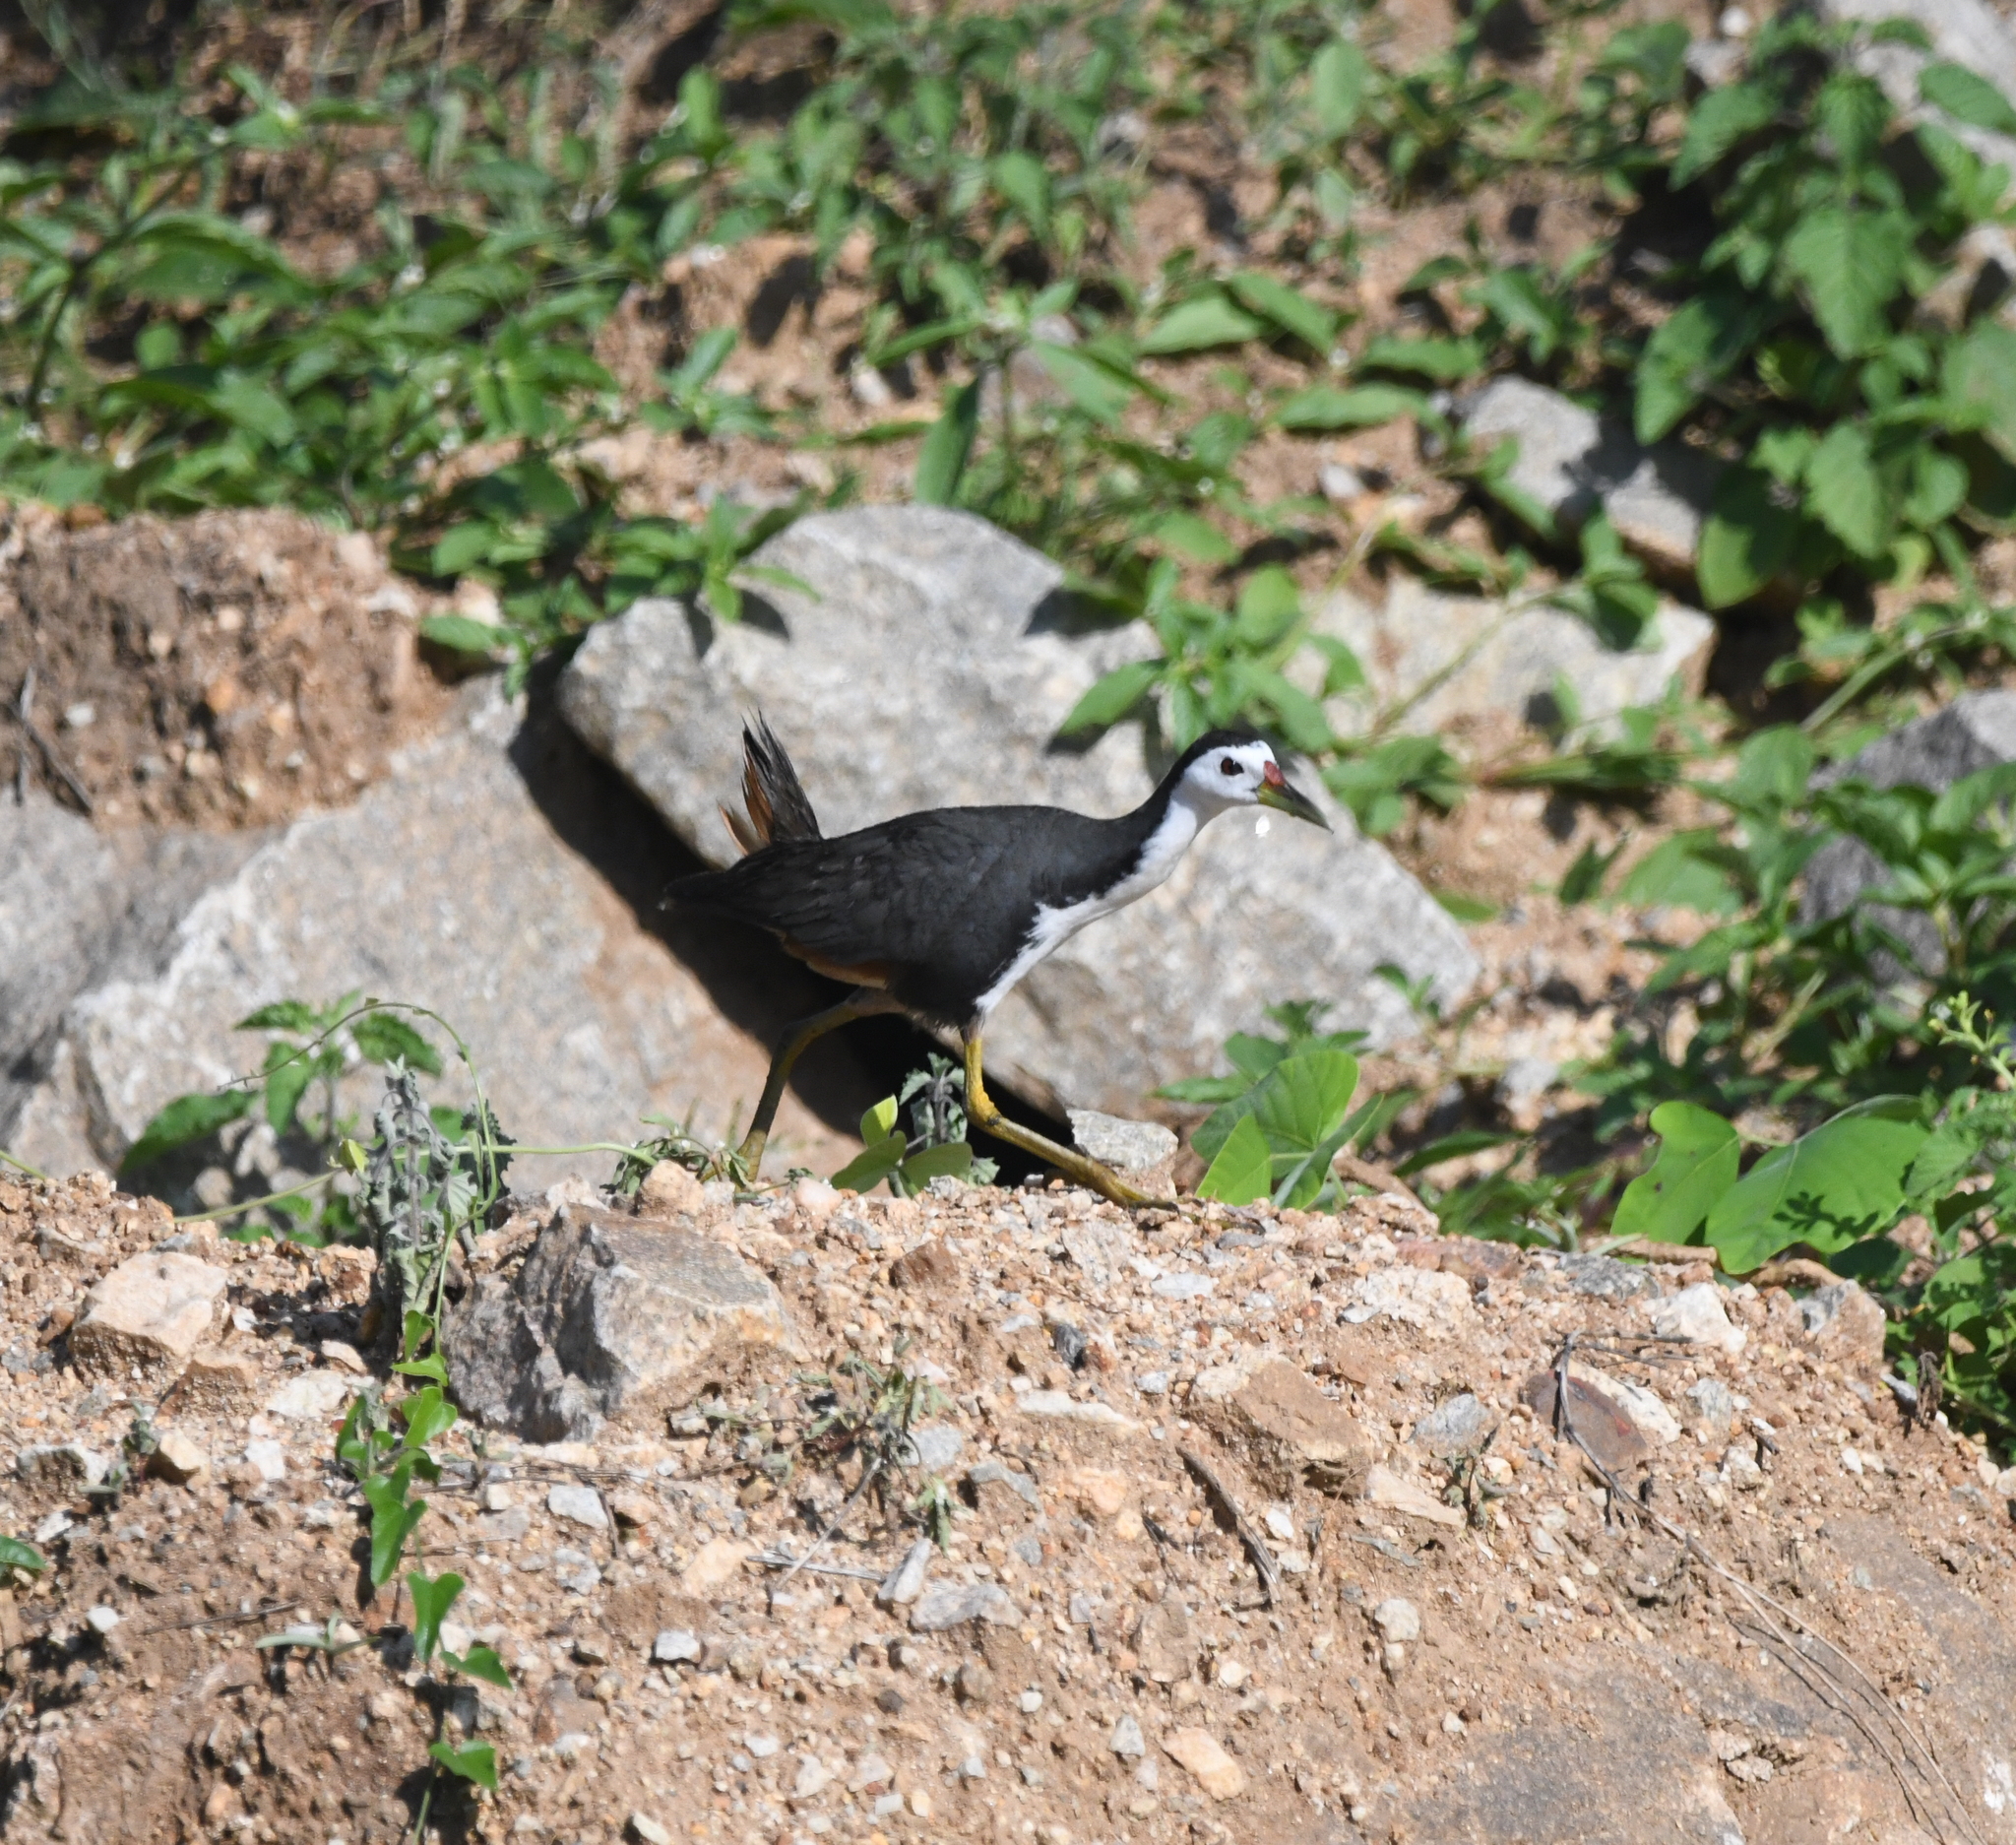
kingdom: Animalia
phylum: Chordata
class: Aves
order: Gruiformes
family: Rallidae
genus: Amaurornis
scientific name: Amaurornis phoenicurus
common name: White-breasted waterhen
